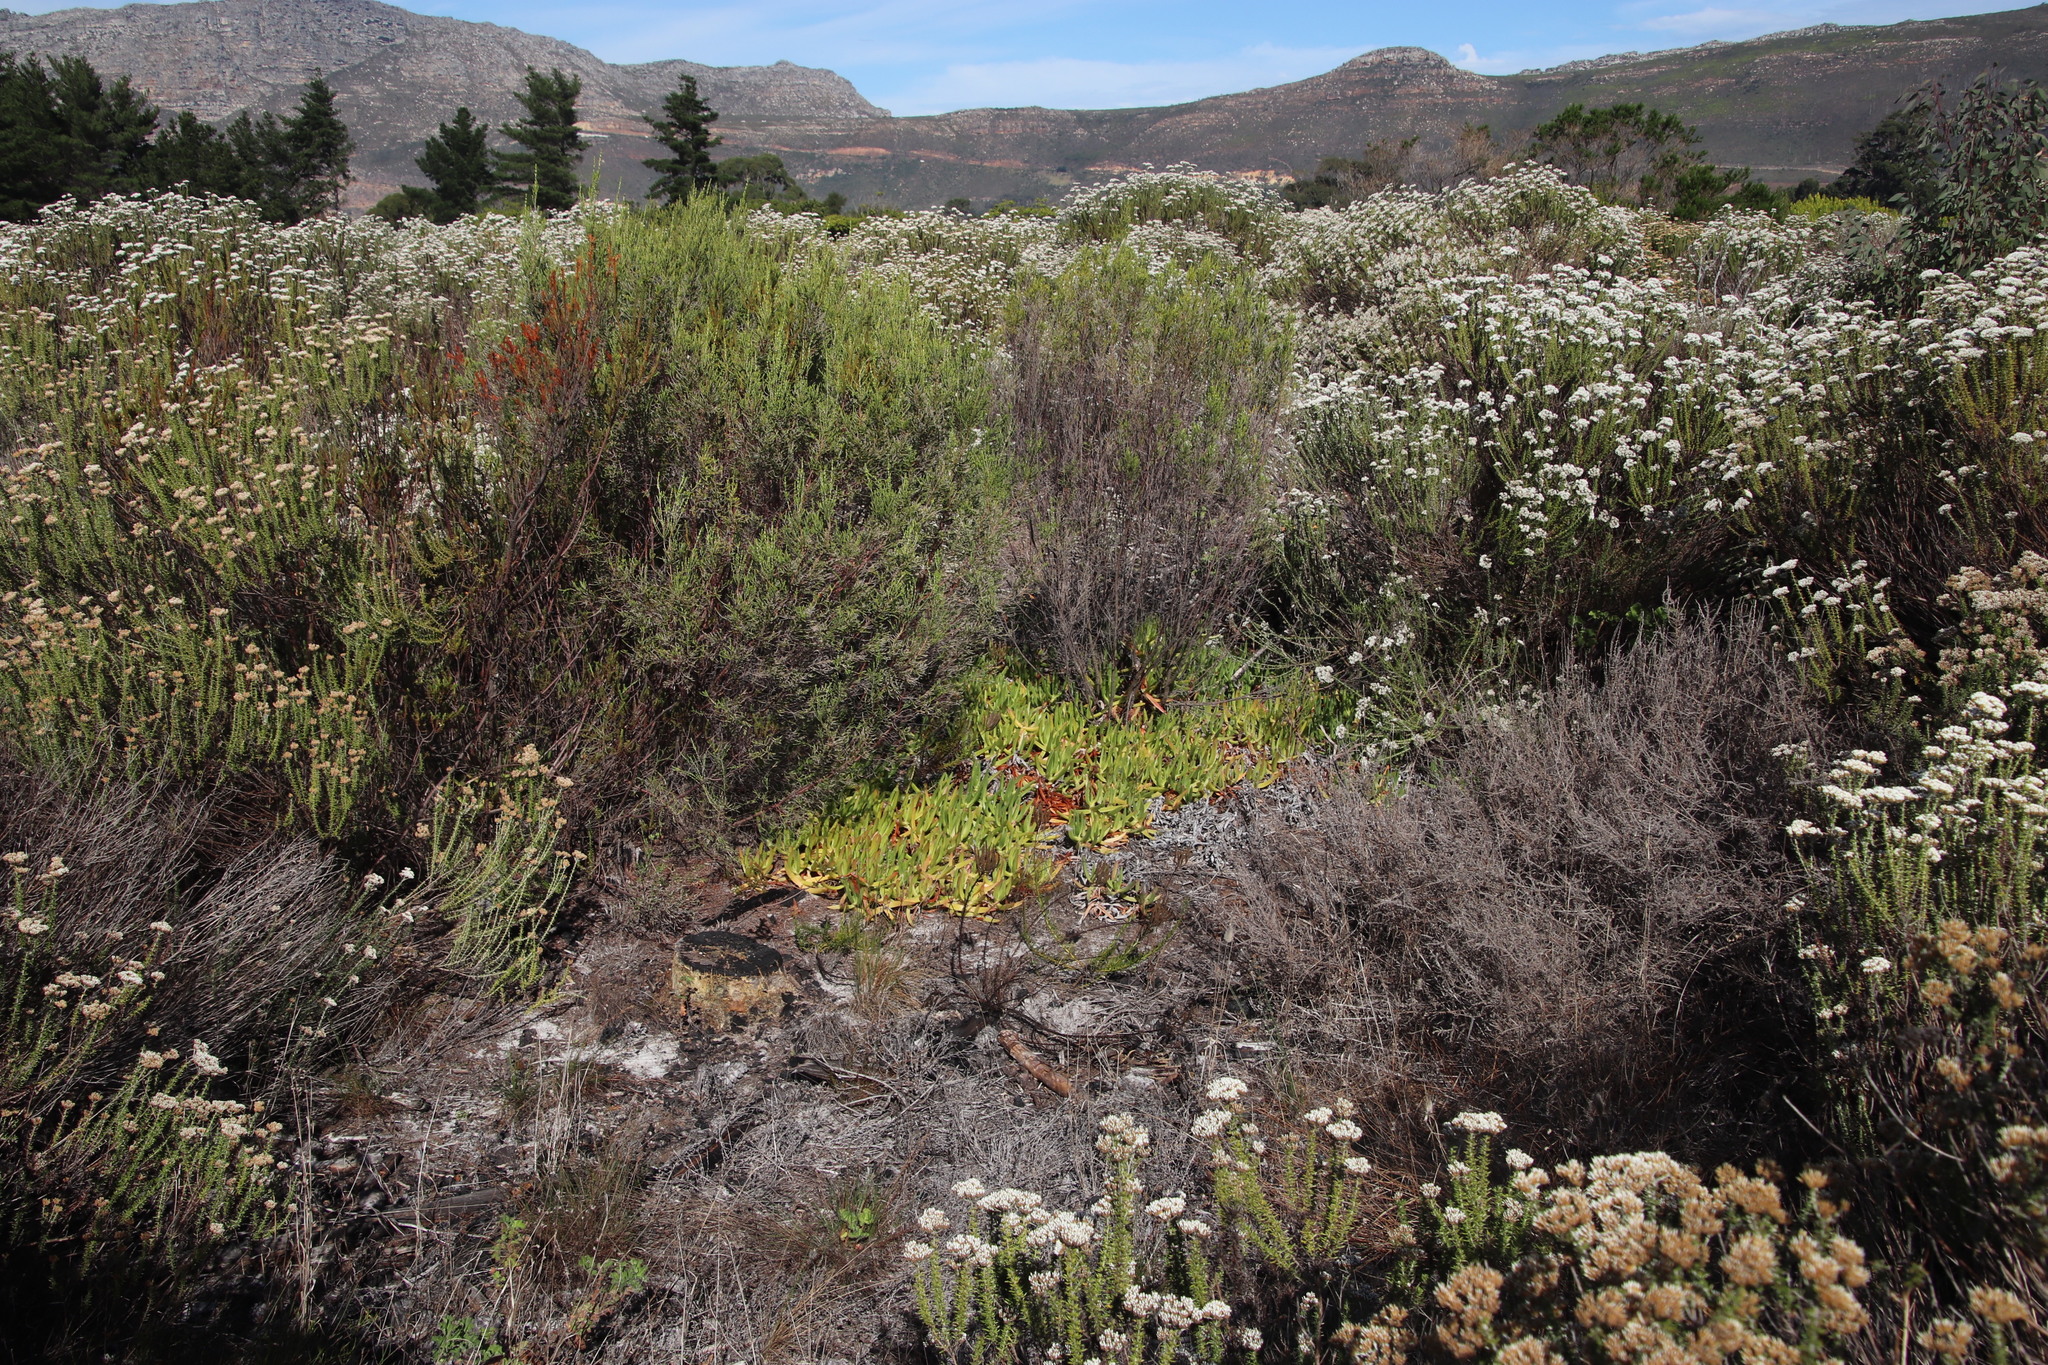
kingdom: Plantae
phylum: Tracheophyta
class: Magnoliopsida
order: Caryophyllales
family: Aizoaceae
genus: Carpobrotus
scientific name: Carpobrotus edulis
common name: Hottentot-fig
